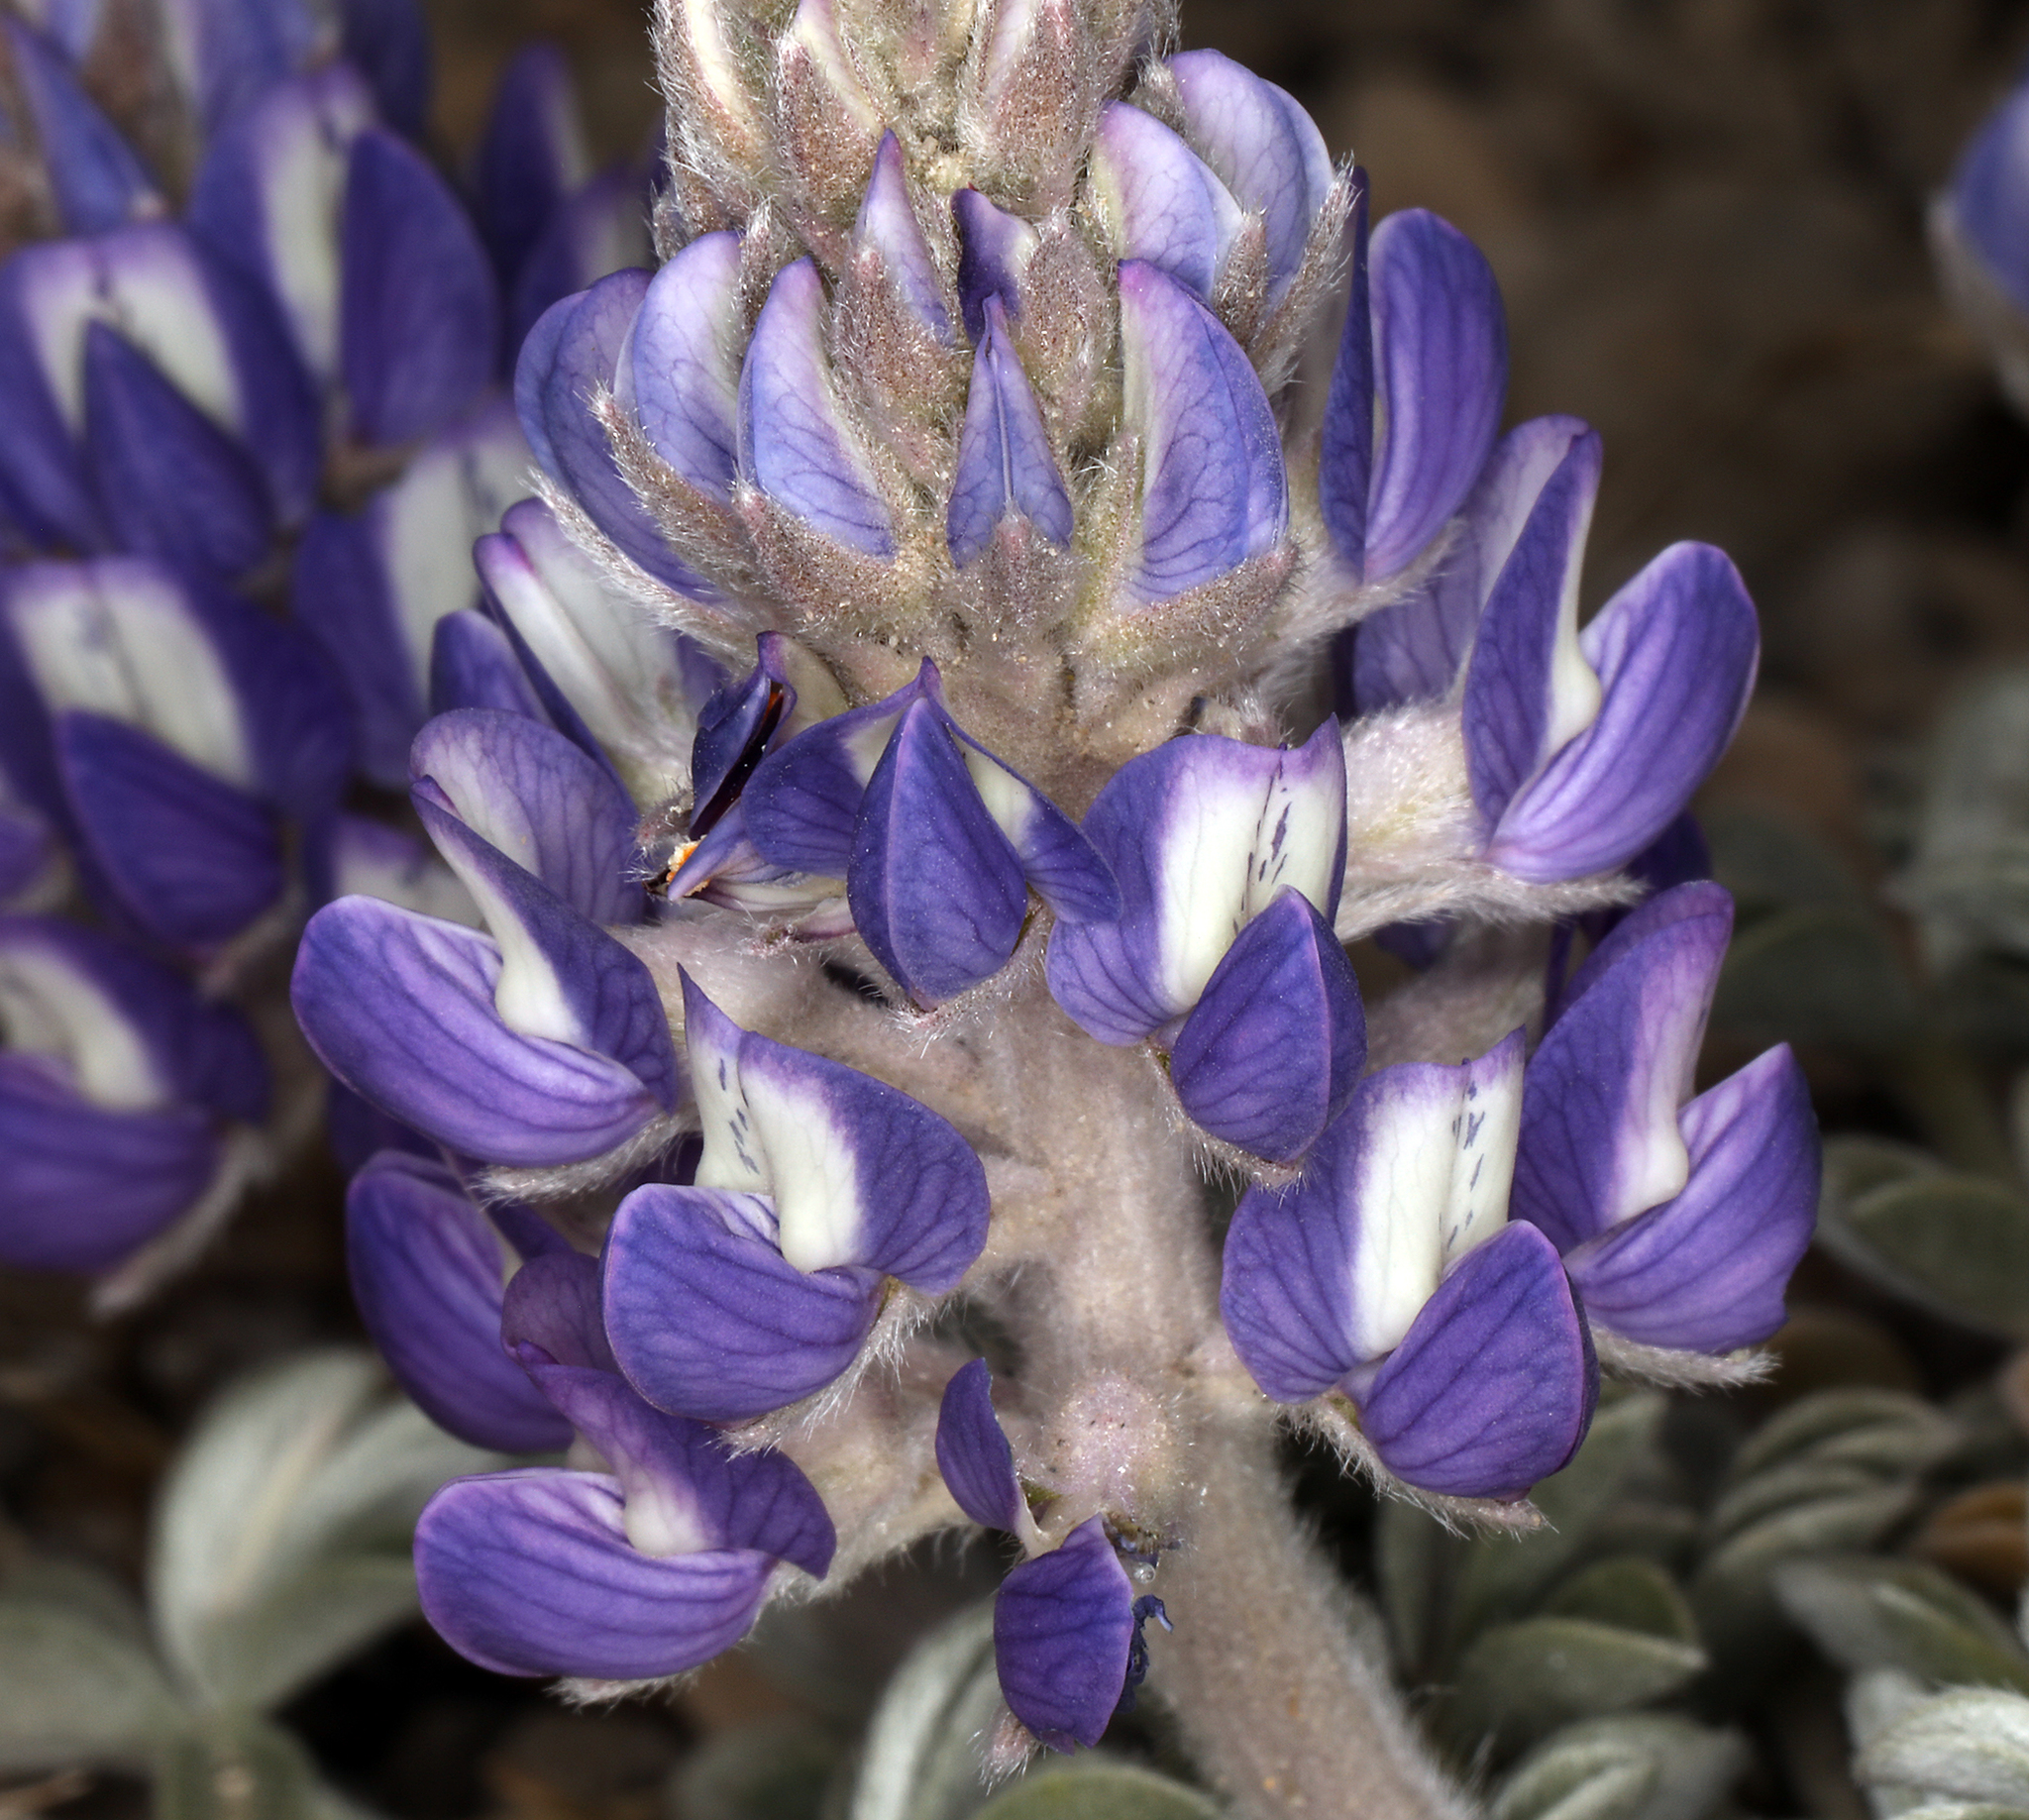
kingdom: Plantae
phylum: Tracheophyta
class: Magnoliopsida
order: Fabales
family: Fabaceae
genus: Lupinus
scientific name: Lupinus duranii
